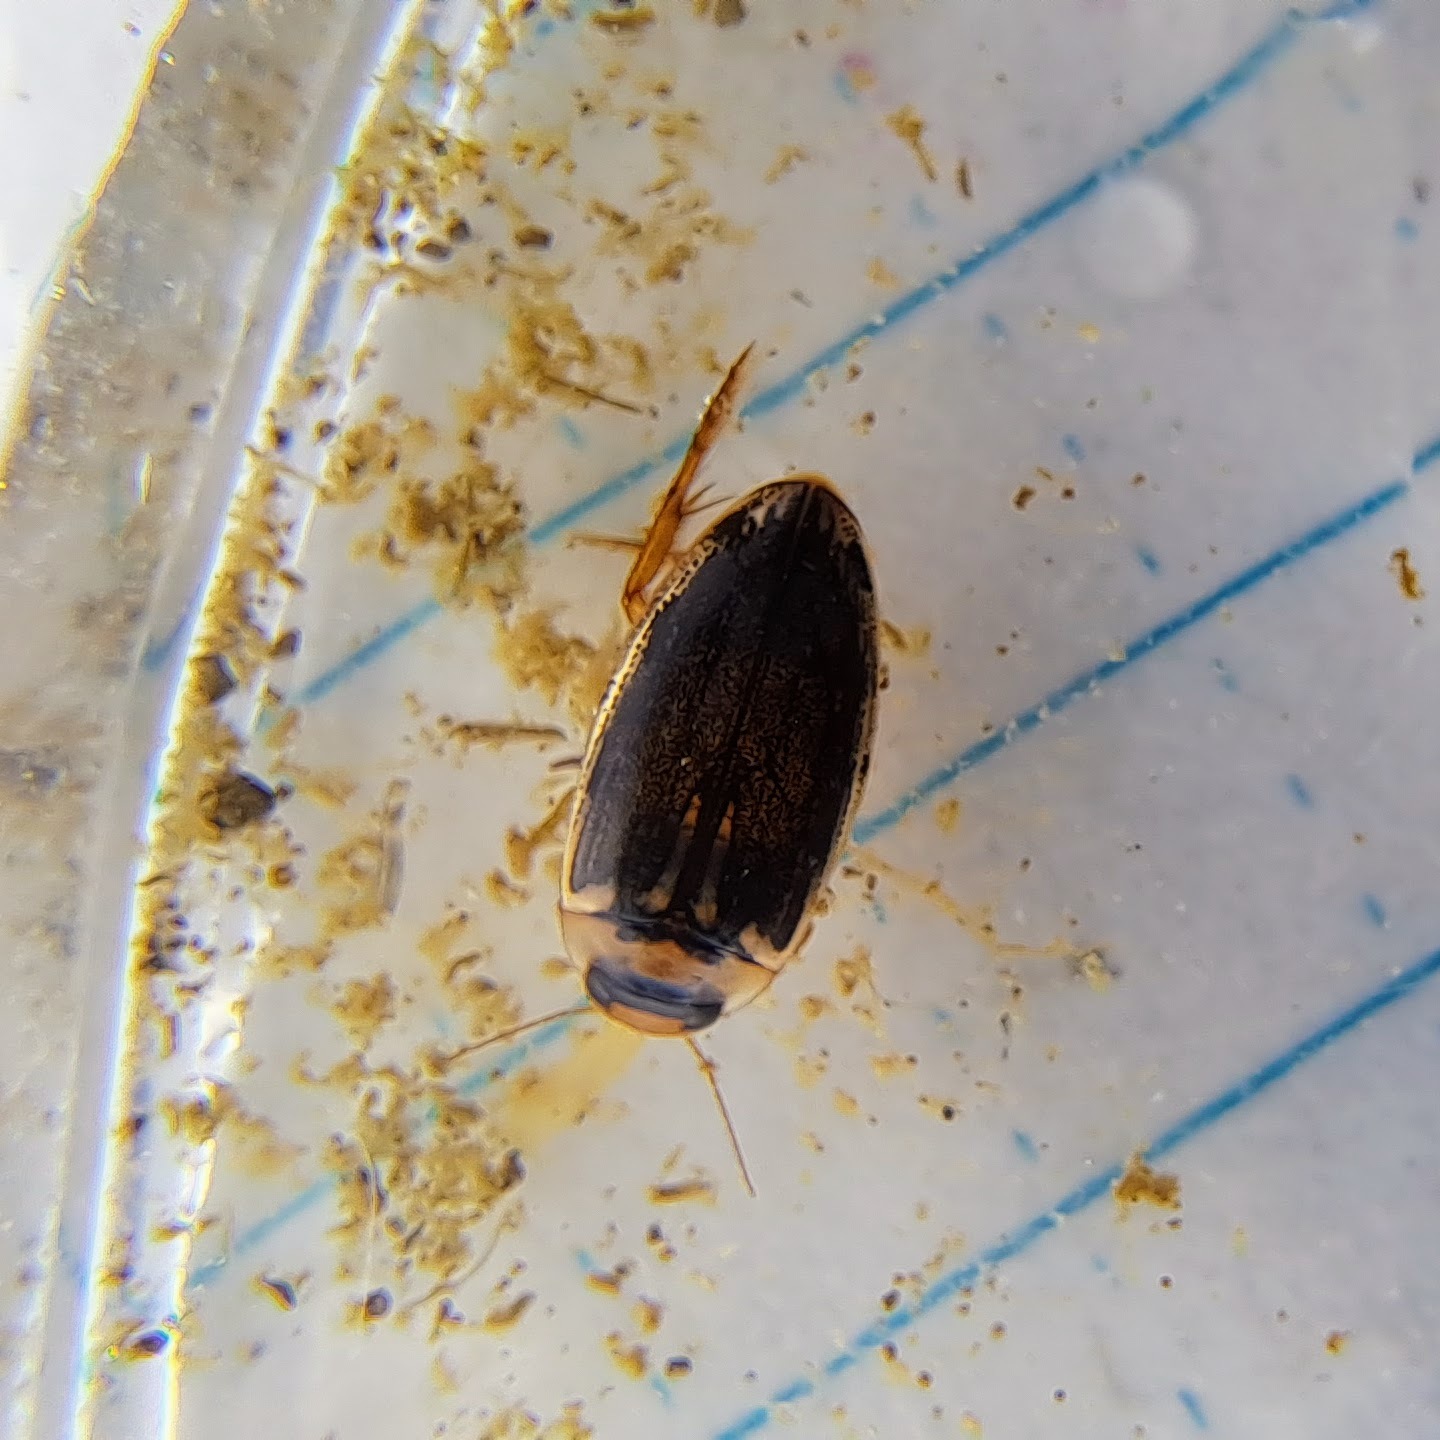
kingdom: Animalia
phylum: Arthropoda
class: Insecta
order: Coleoptera
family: Dytiscidae
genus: Coptotomus
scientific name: Coptotomus longulus
